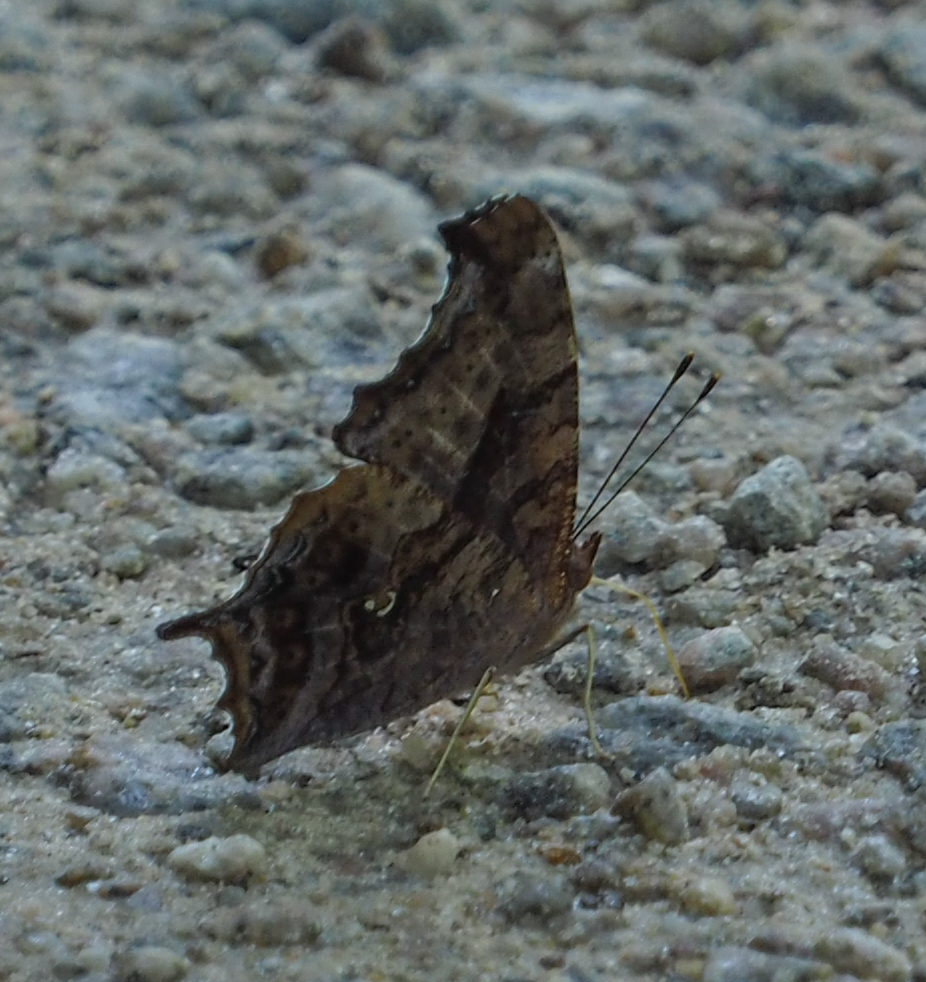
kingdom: Animalia
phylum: Arthropoda
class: Insecta
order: Lepidoptera
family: Nymphalidae
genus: Polygonia
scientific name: Polygonia interrogationis
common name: Question mark
